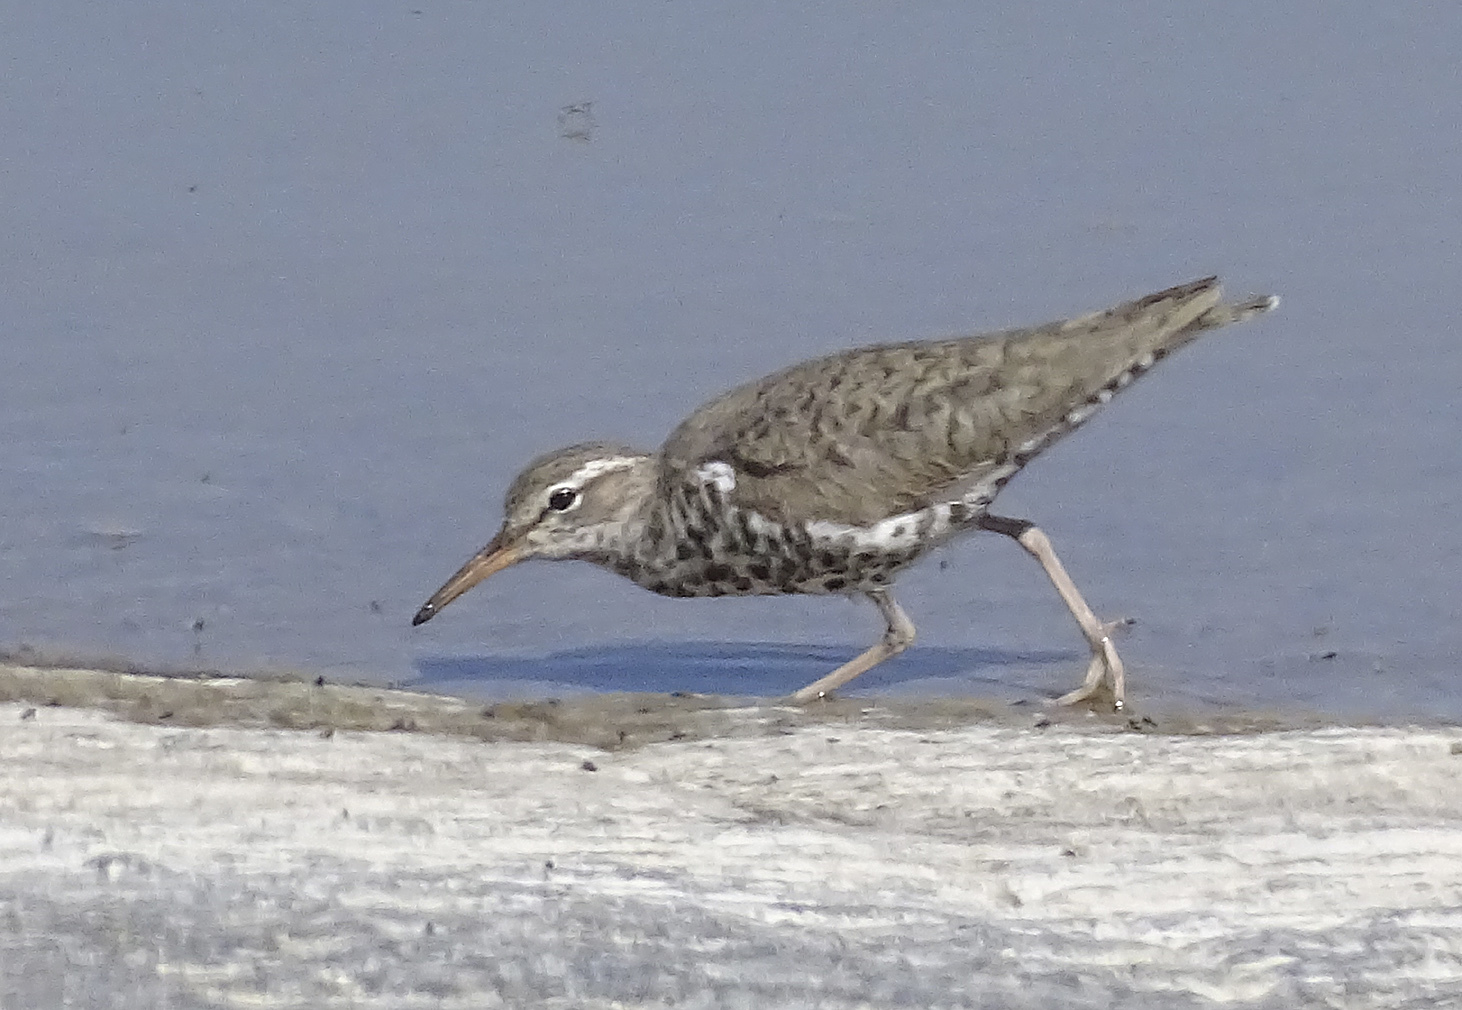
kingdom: Animalia
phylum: Chordata
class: Aves
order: Charadriiformes
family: Scolopacidae
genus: Actitis
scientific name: Actitis macularius
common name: Spotted sandpiper
